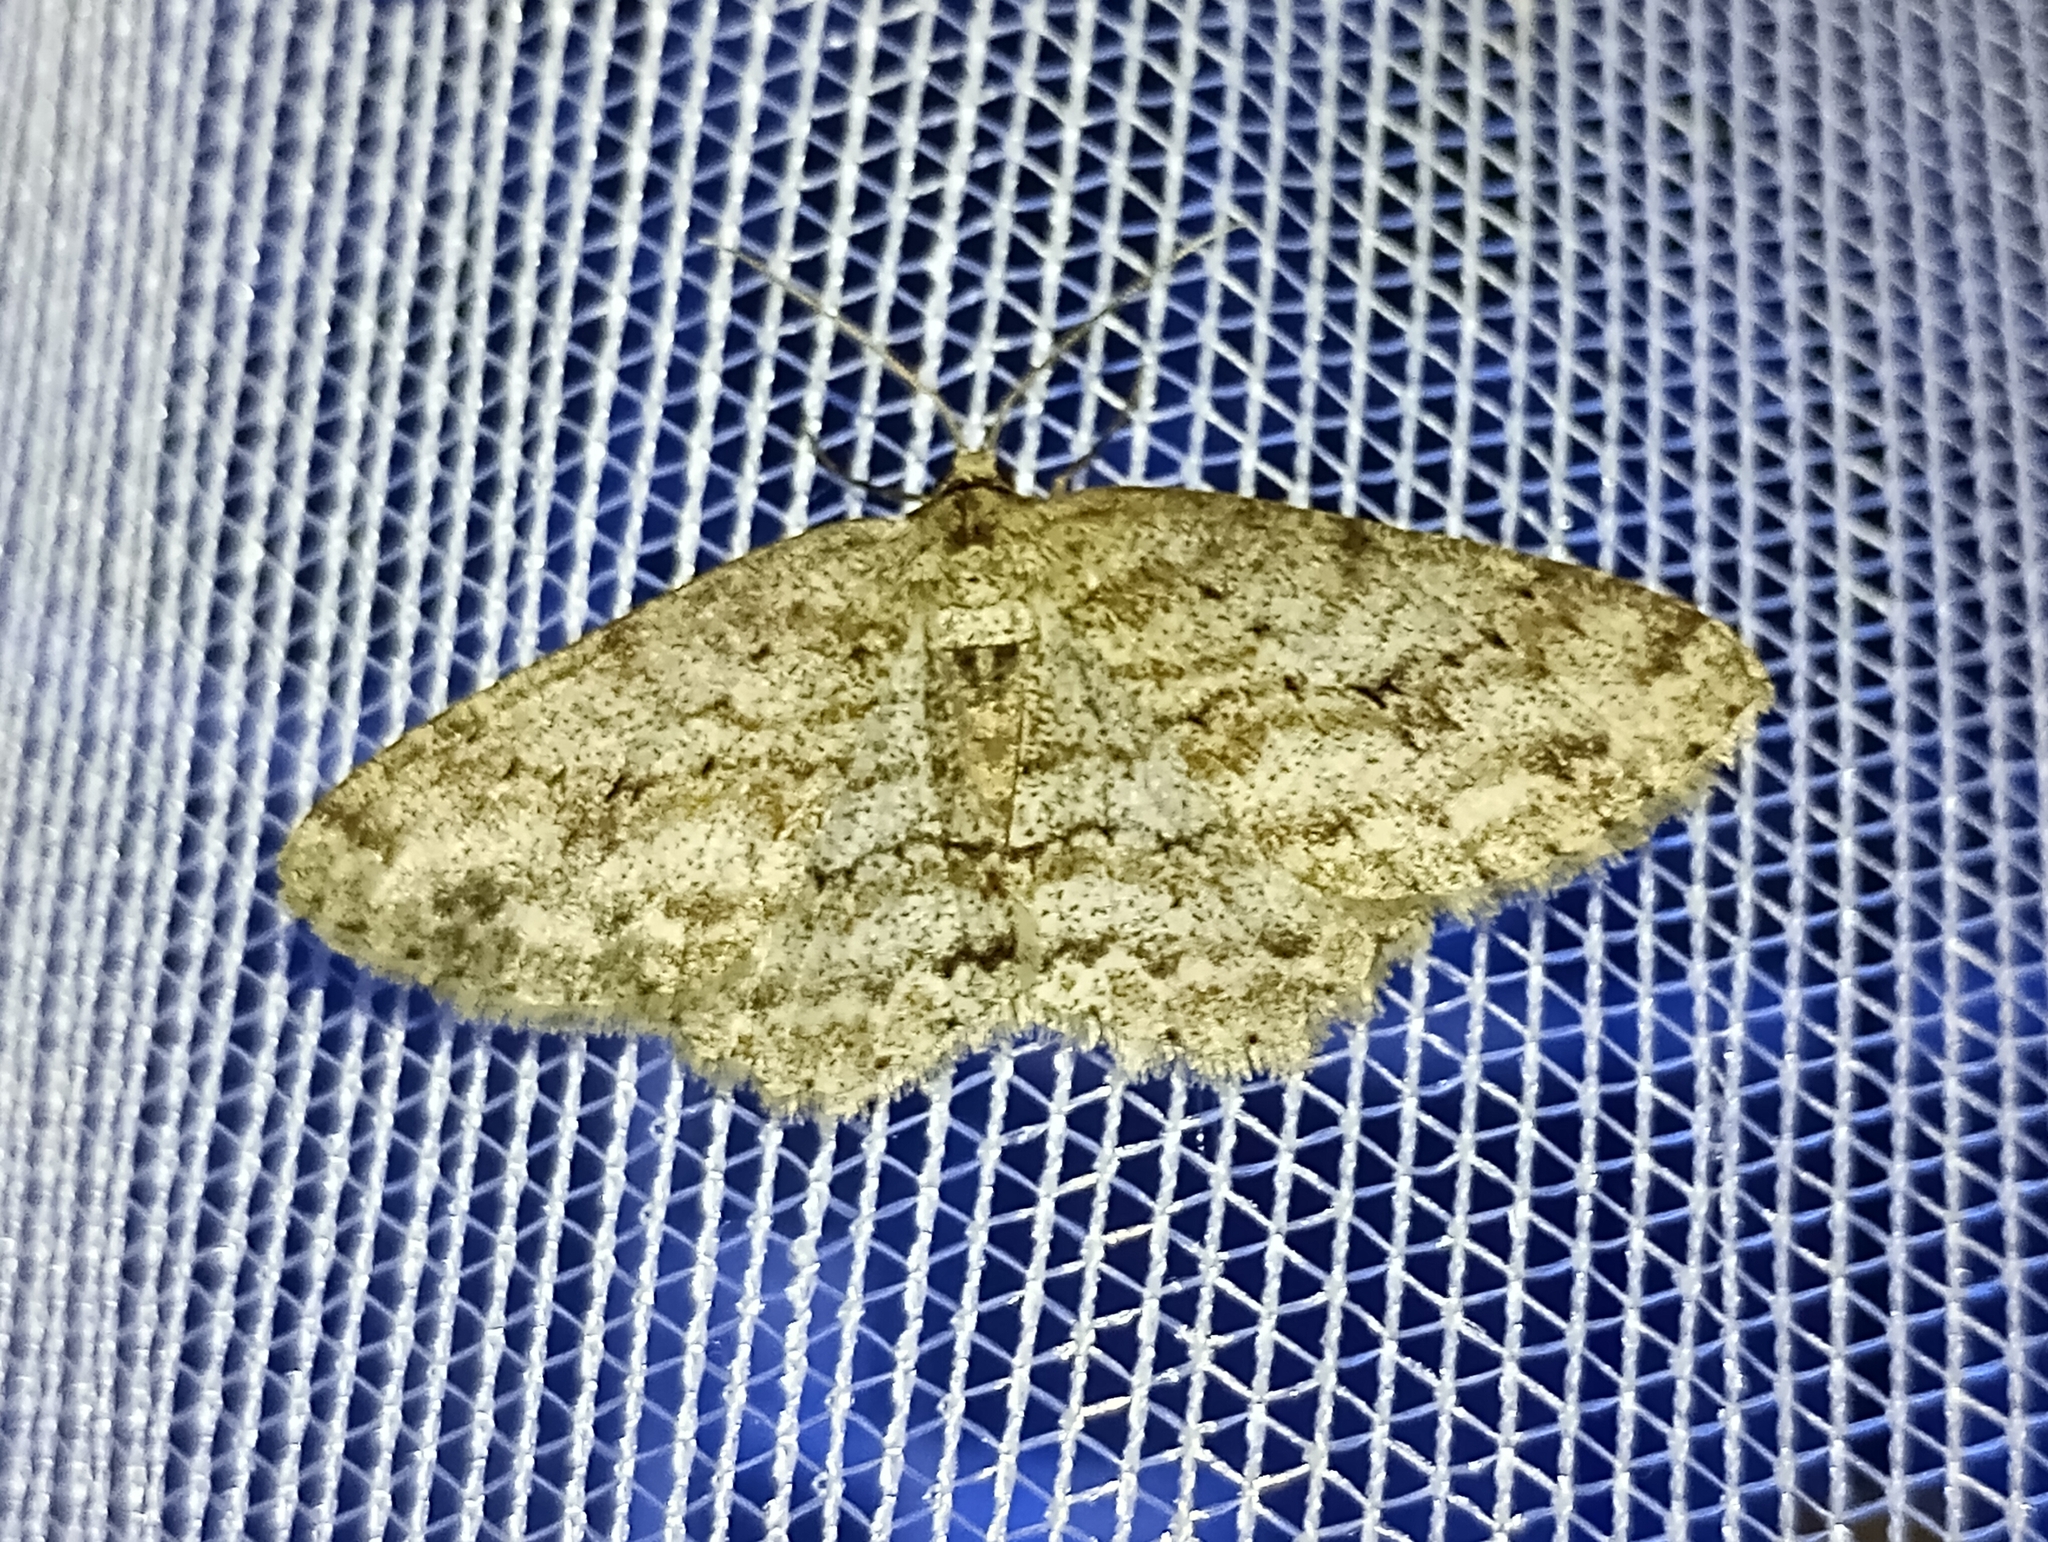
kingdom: Animalia
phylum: Arthropoda
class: Insecta
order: Lepidoptera
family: Geometridae
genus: Ectropis
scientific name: Ectropis crepuscularia
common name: Engrailed
